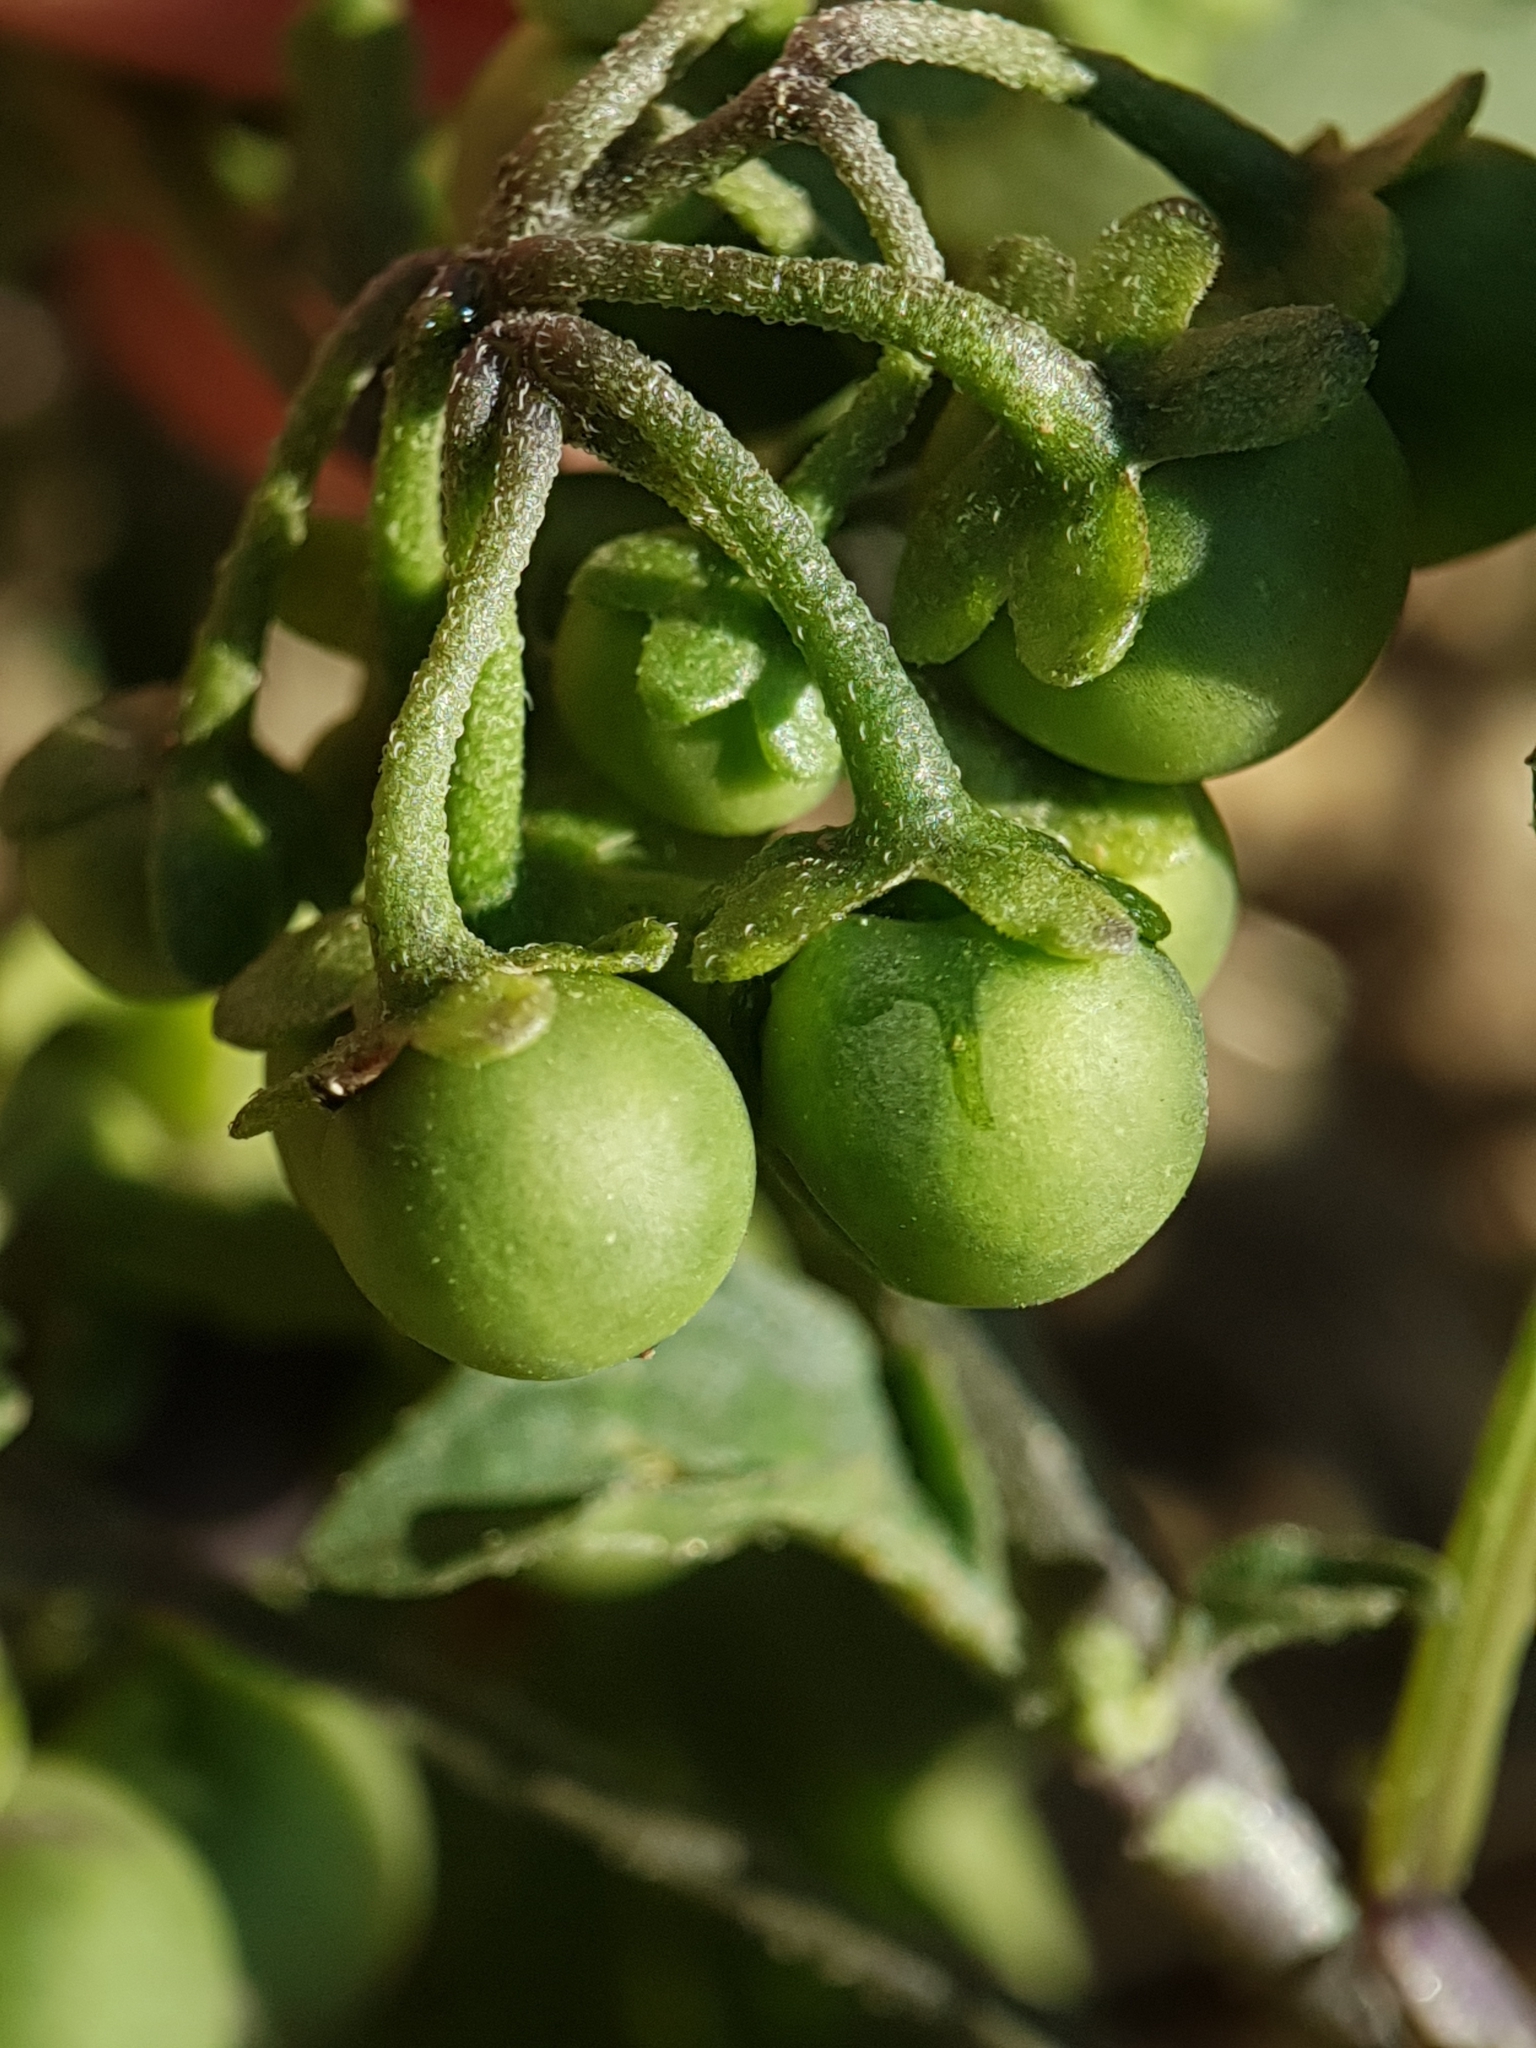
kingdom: Plantae
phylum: Tracheophyta
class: Magnoliopsida
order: Solanales
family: Solanaceae
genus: Solanum
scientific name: Solanum nigrum
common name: Black nightshade
